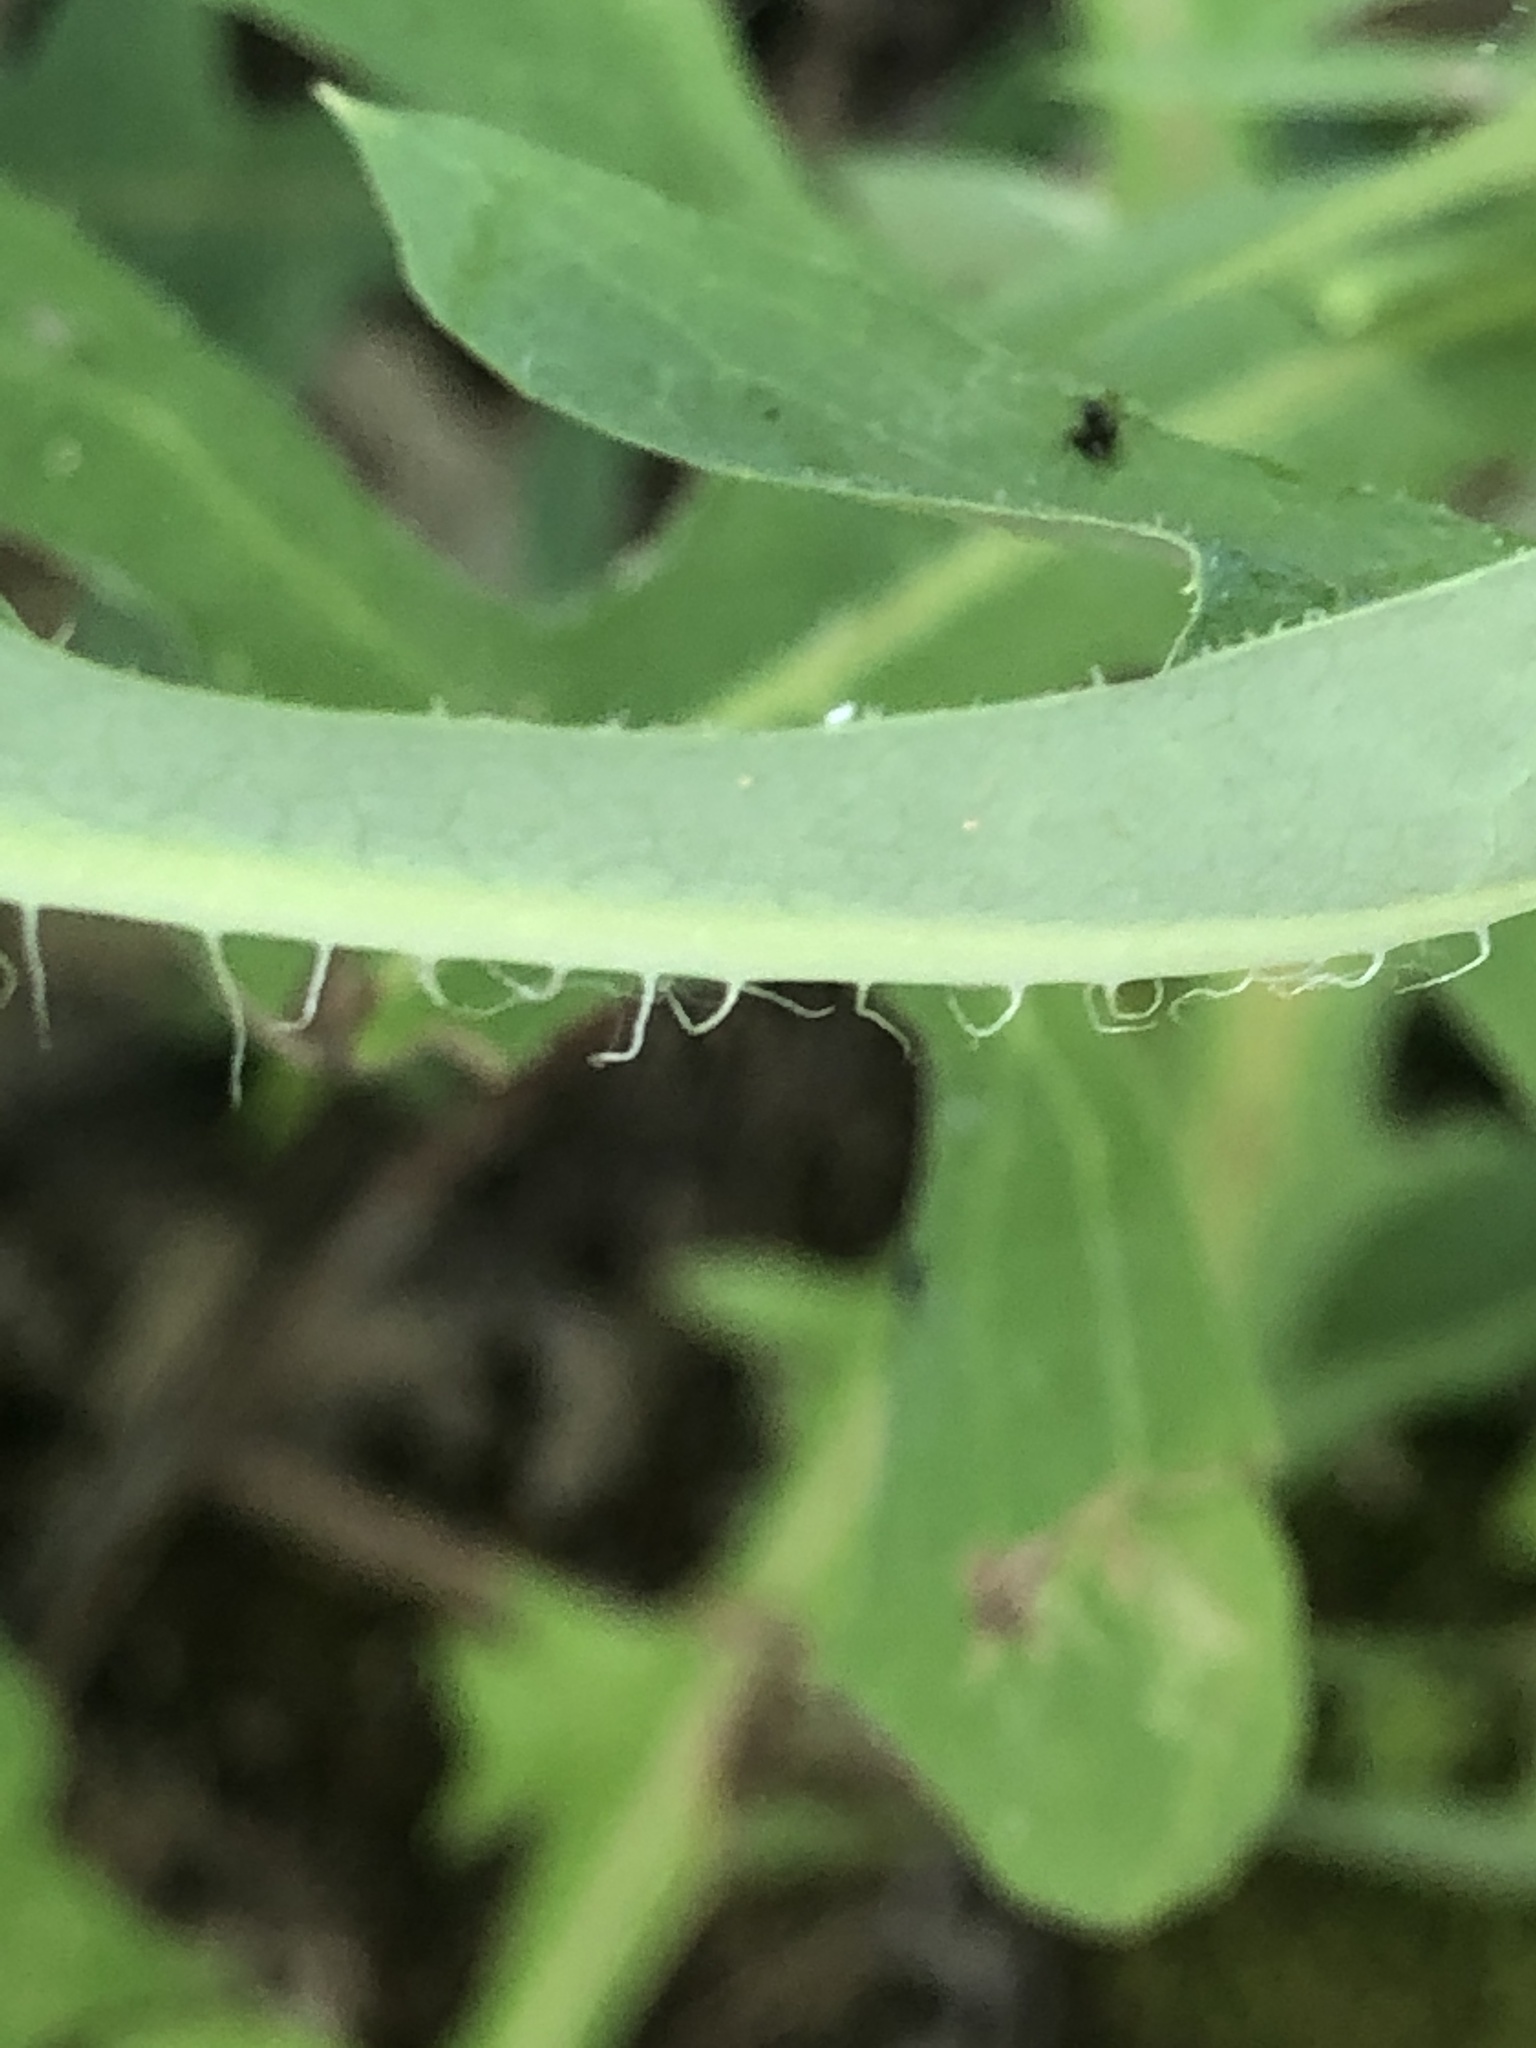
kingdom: Plantae
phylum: Tracheophyta
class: Magnoliopsida
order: Asterales
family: Asteraceae
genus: Lactuca
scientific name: Lactuca canadensis
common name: Canada lettuce
